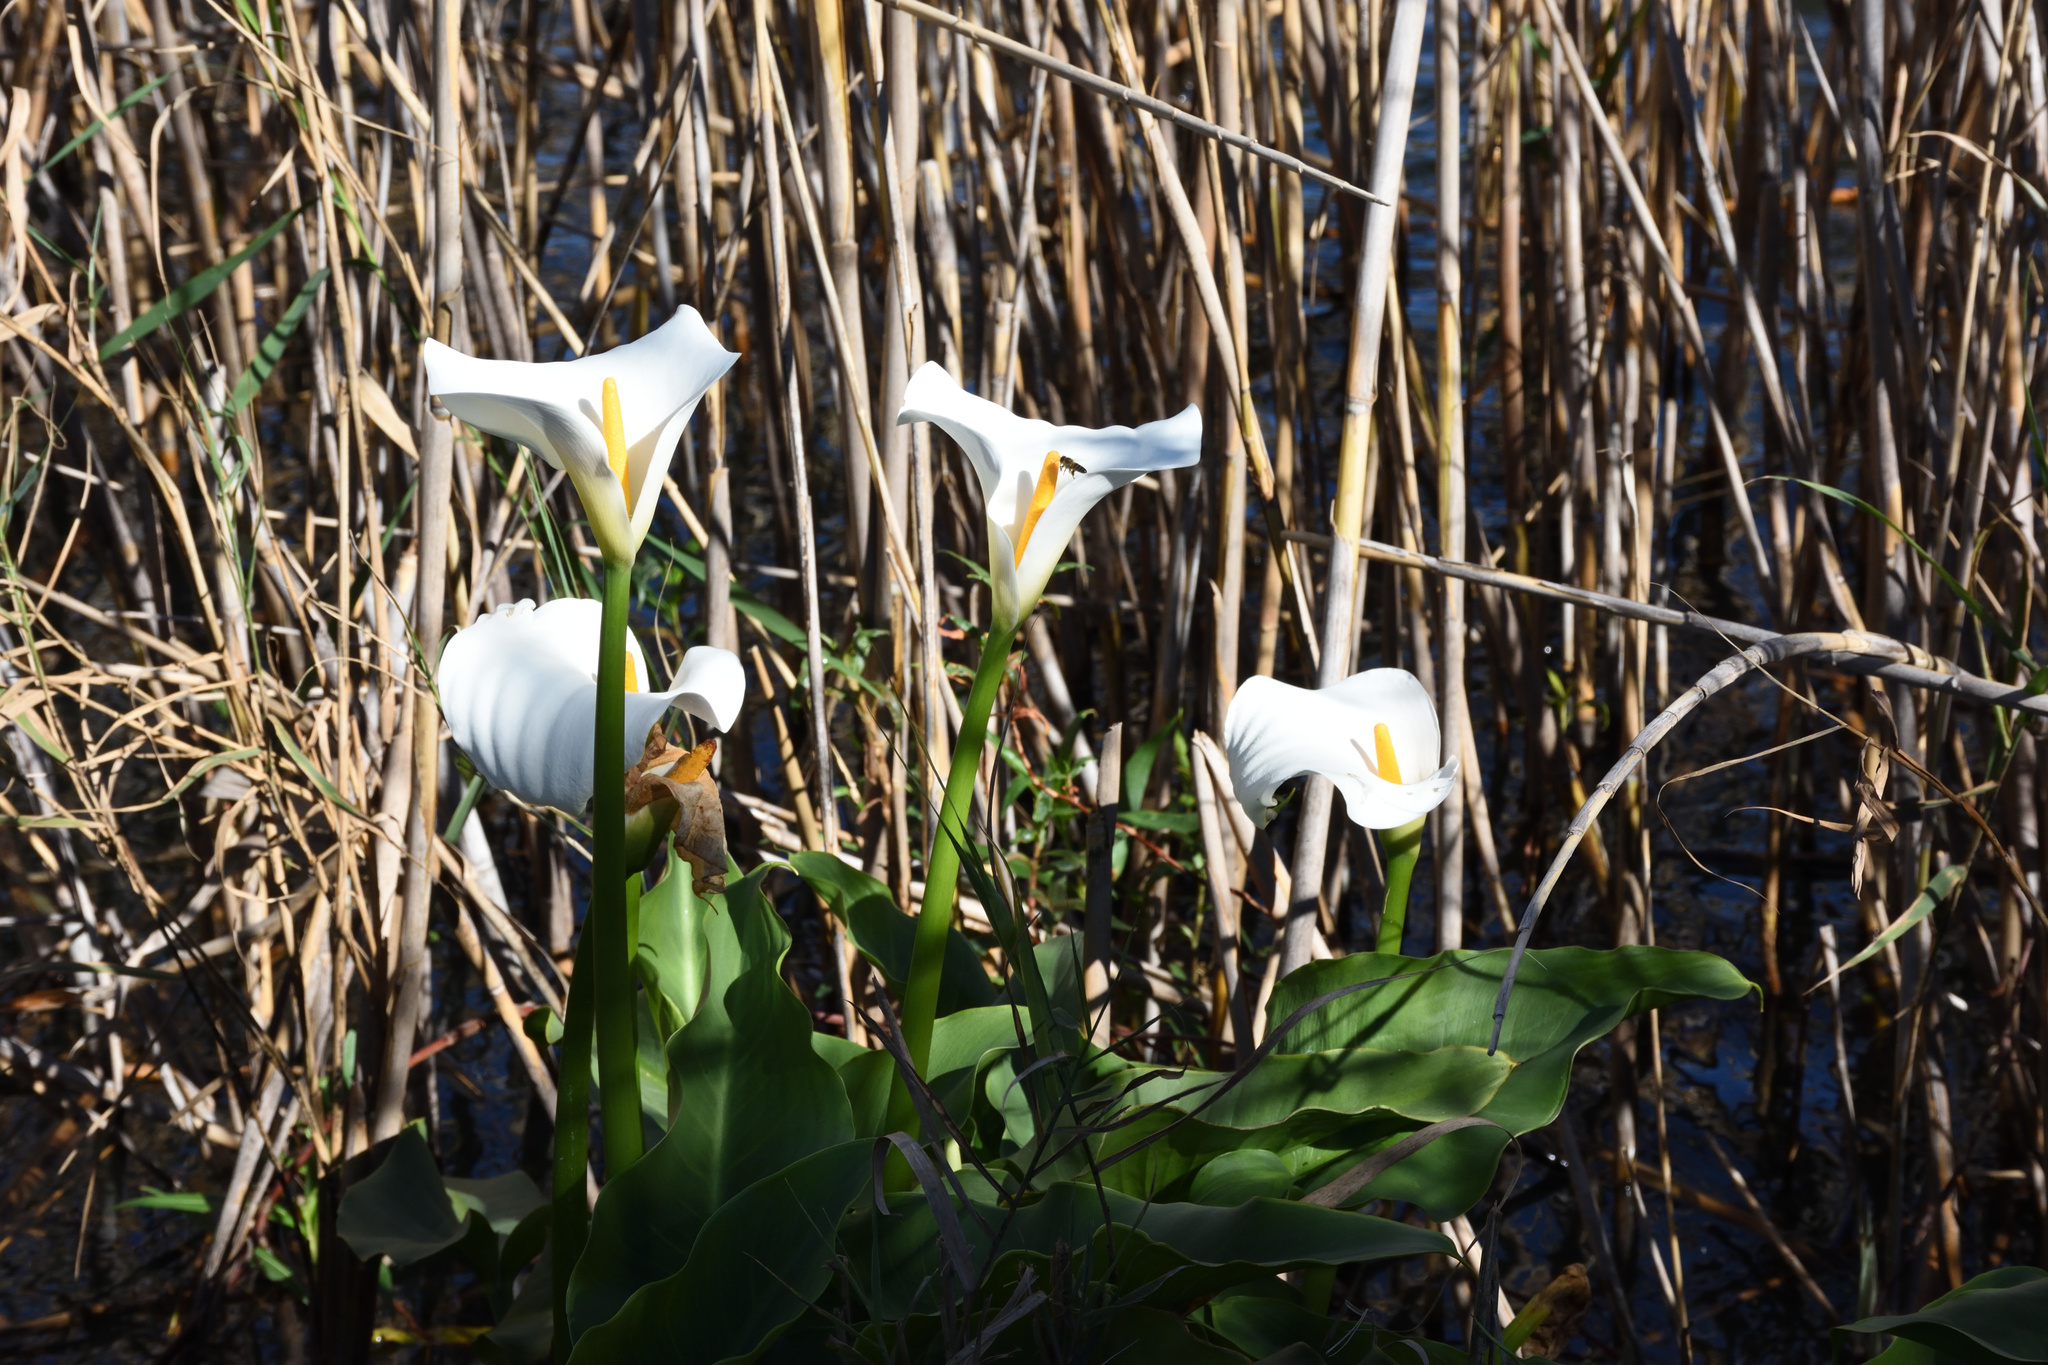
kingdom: Plantae
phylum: Tracheophyta
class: Liliopsida
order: Alismatales
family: Araceae
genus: Zantedeschia
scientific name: Zantedeschia aethiopica
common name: Altar-lily
